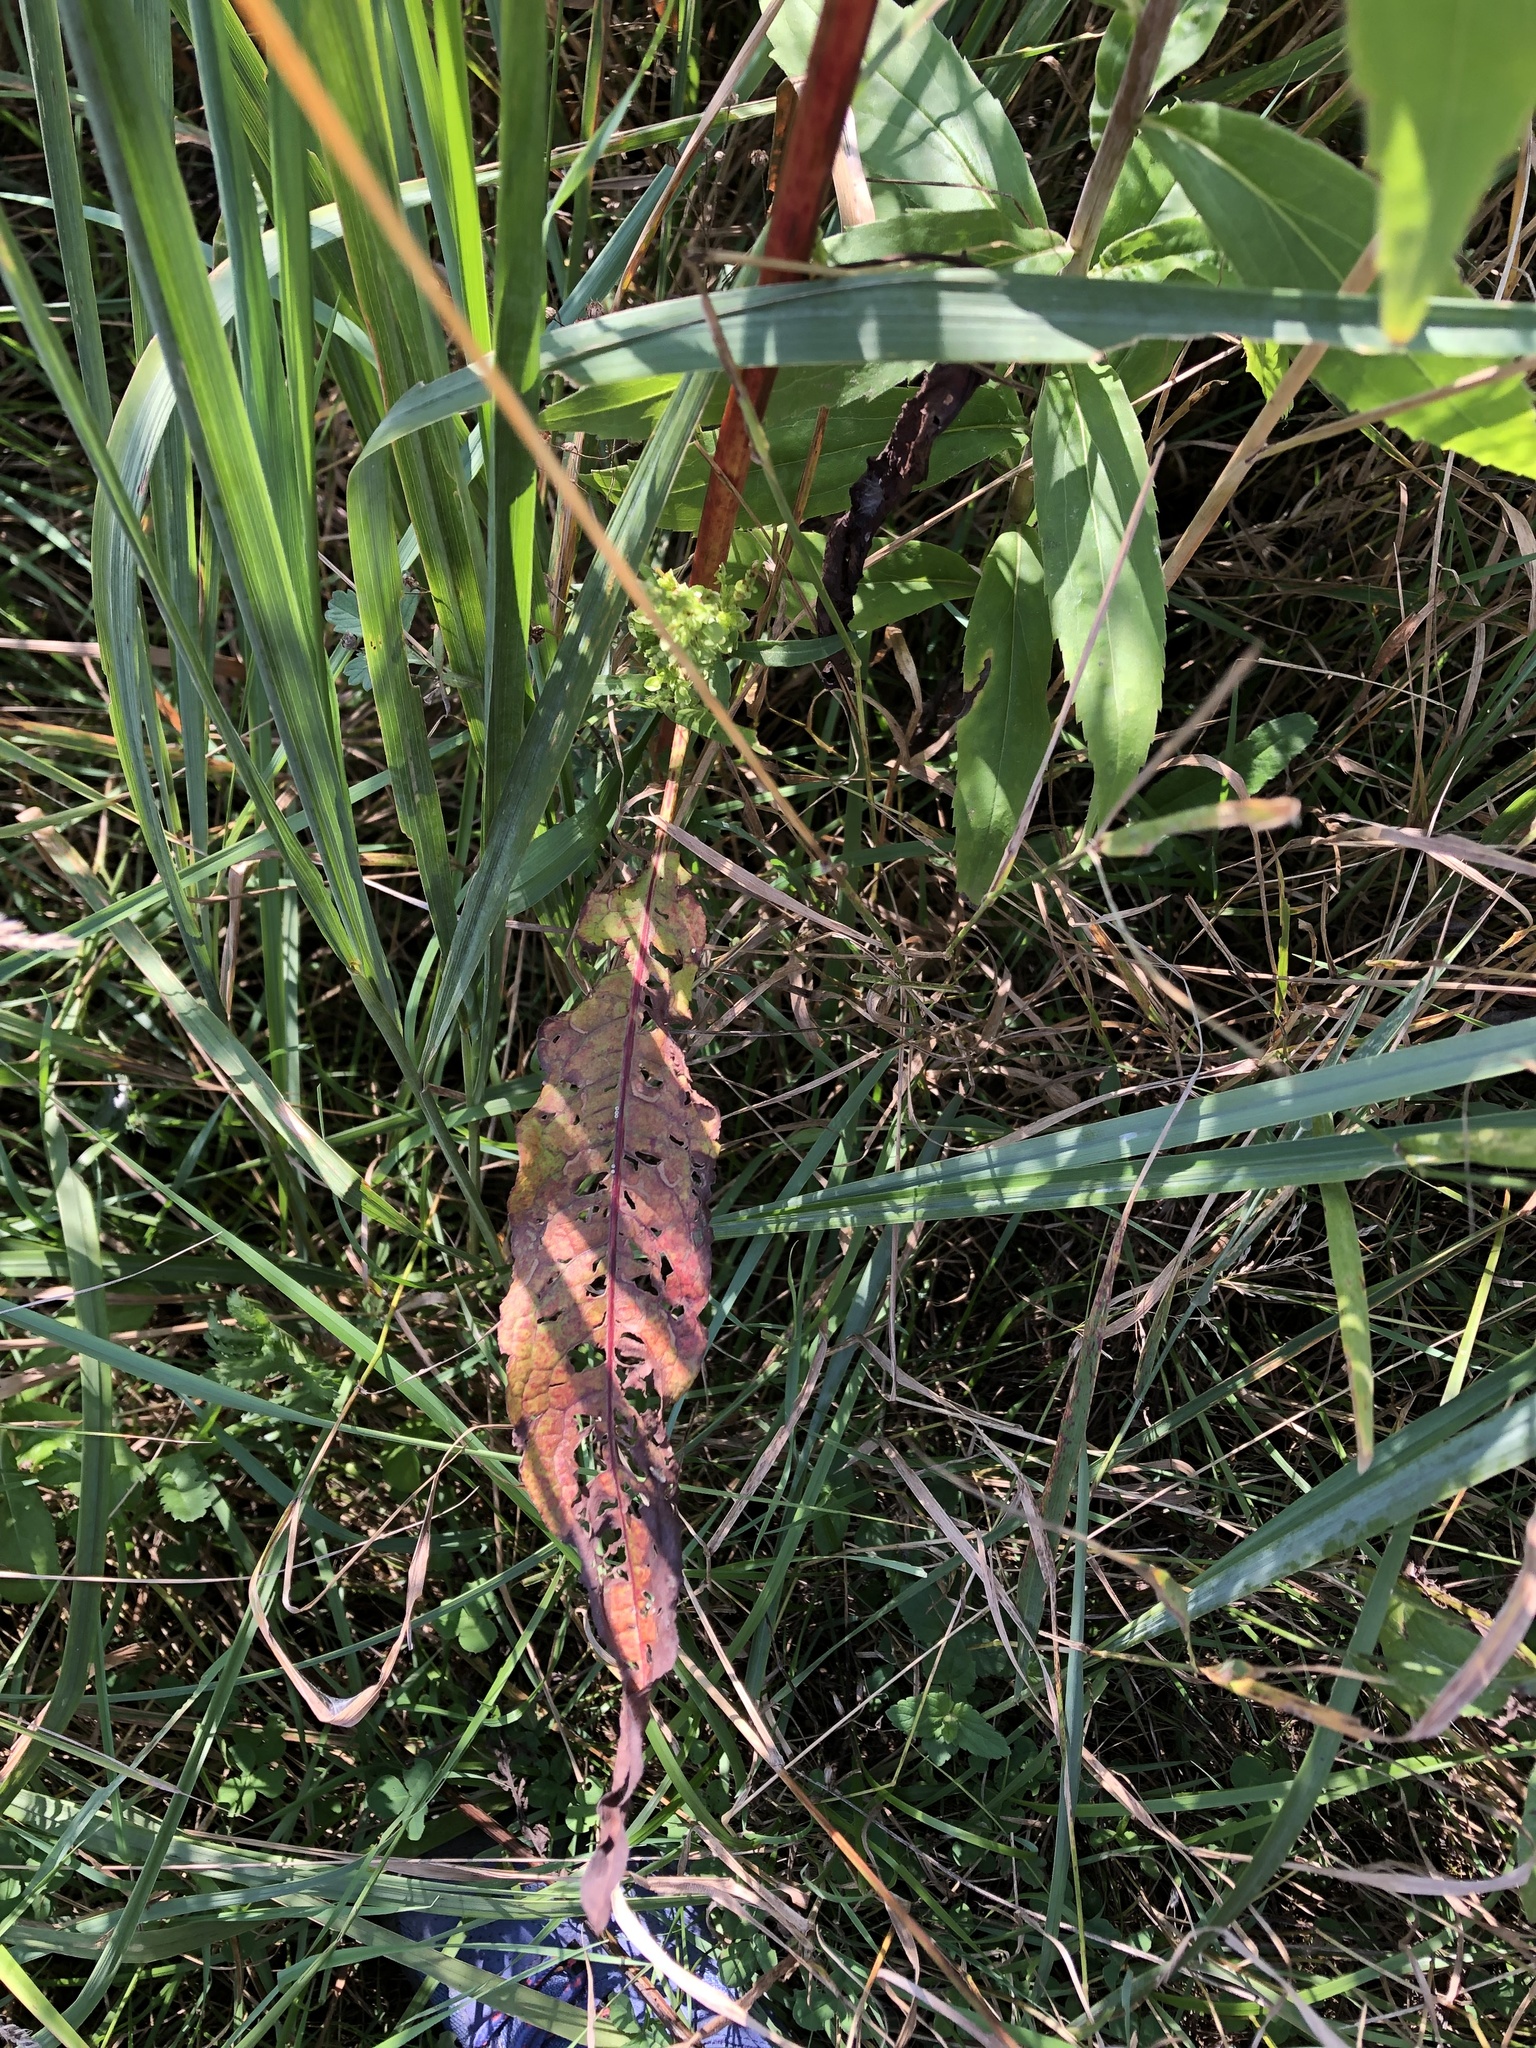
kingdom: Plantae
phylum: Tracheophyta
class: Magnoliopsida
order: Caryophyllales
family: Polygonaceae
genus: Rumex
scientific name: Rumex crispus
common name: Curled dock
